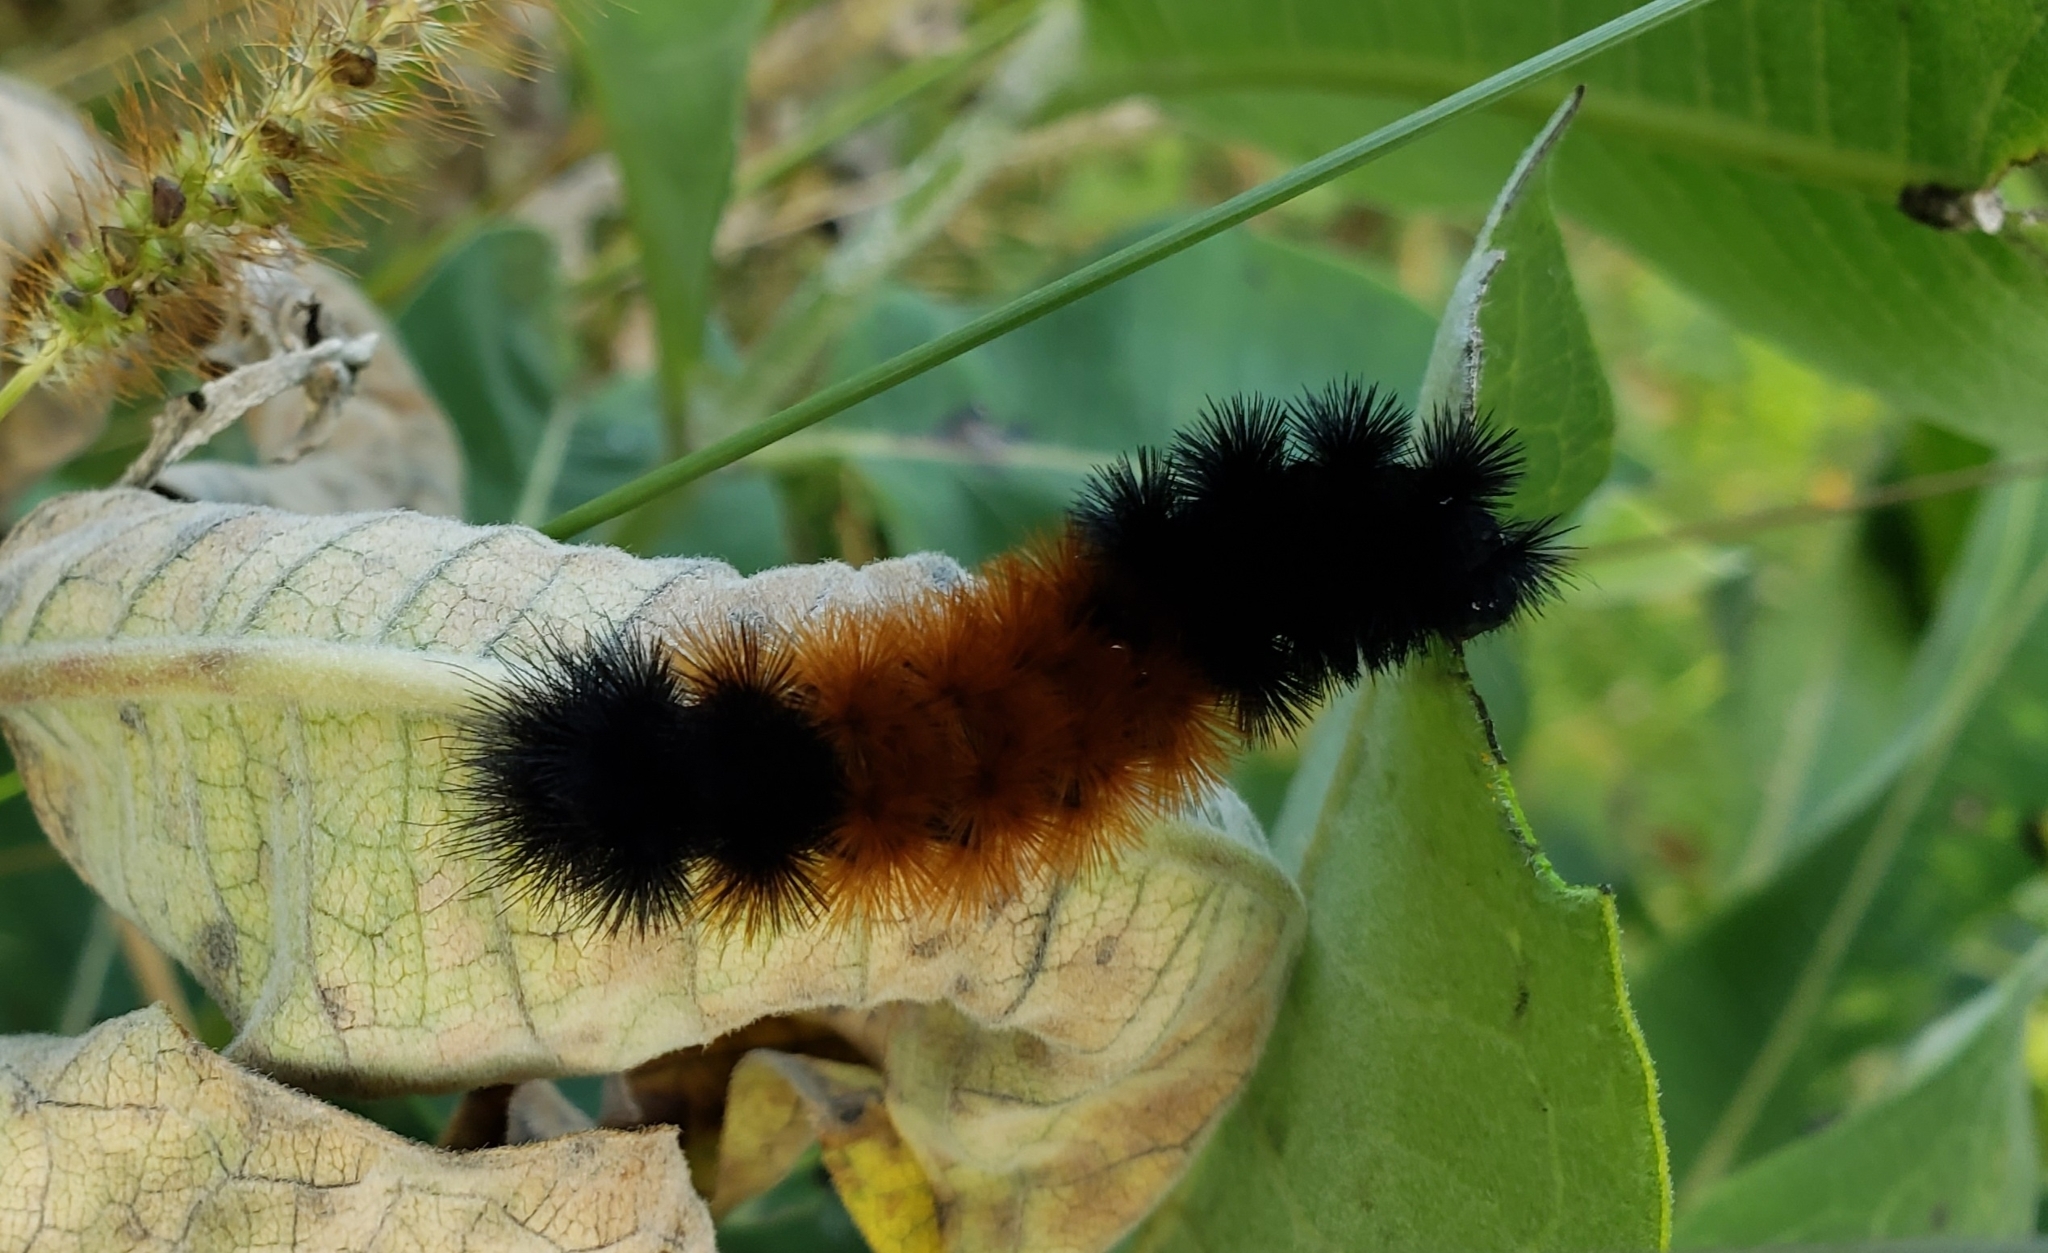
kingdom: Animalia
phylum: Arthropoda
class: Insecta
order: Lepidoptera
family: Erebidae
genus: Pyrrharctia
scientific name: Pyrrharctia isabella
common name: Isabella tiger moth
